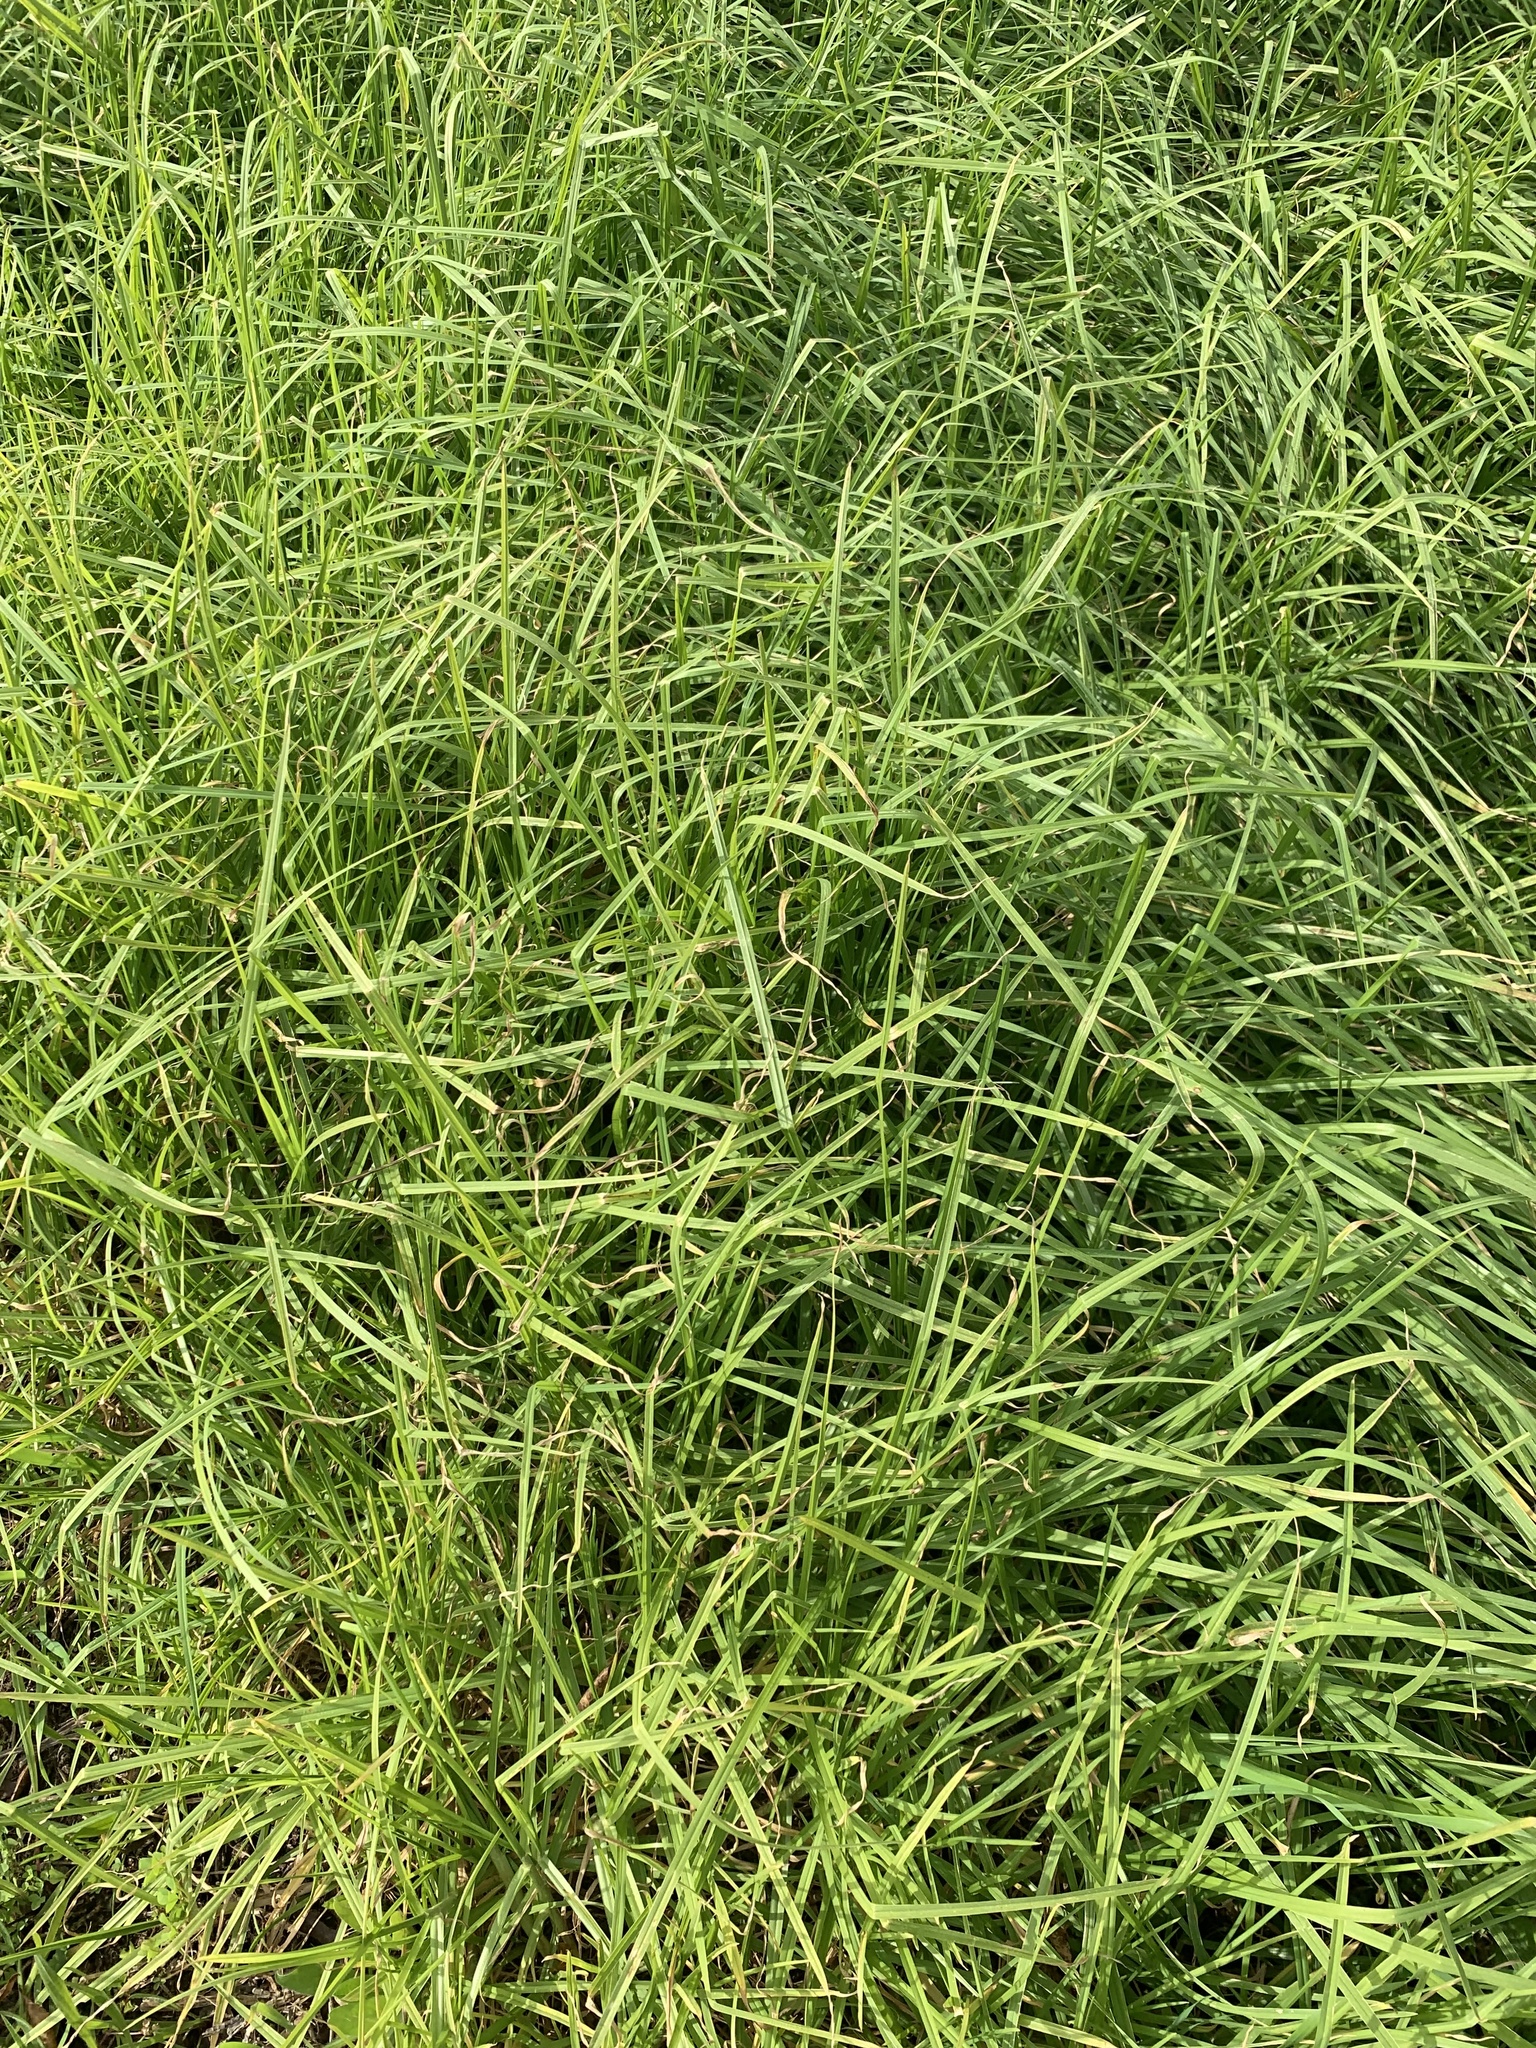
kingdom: Plantae
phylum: Tracheophyta
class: Liliopsida
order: Poales
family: Poaceae
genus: Cenchrus
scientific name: Cenchrus clandestinus
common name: Kikuyugrass
